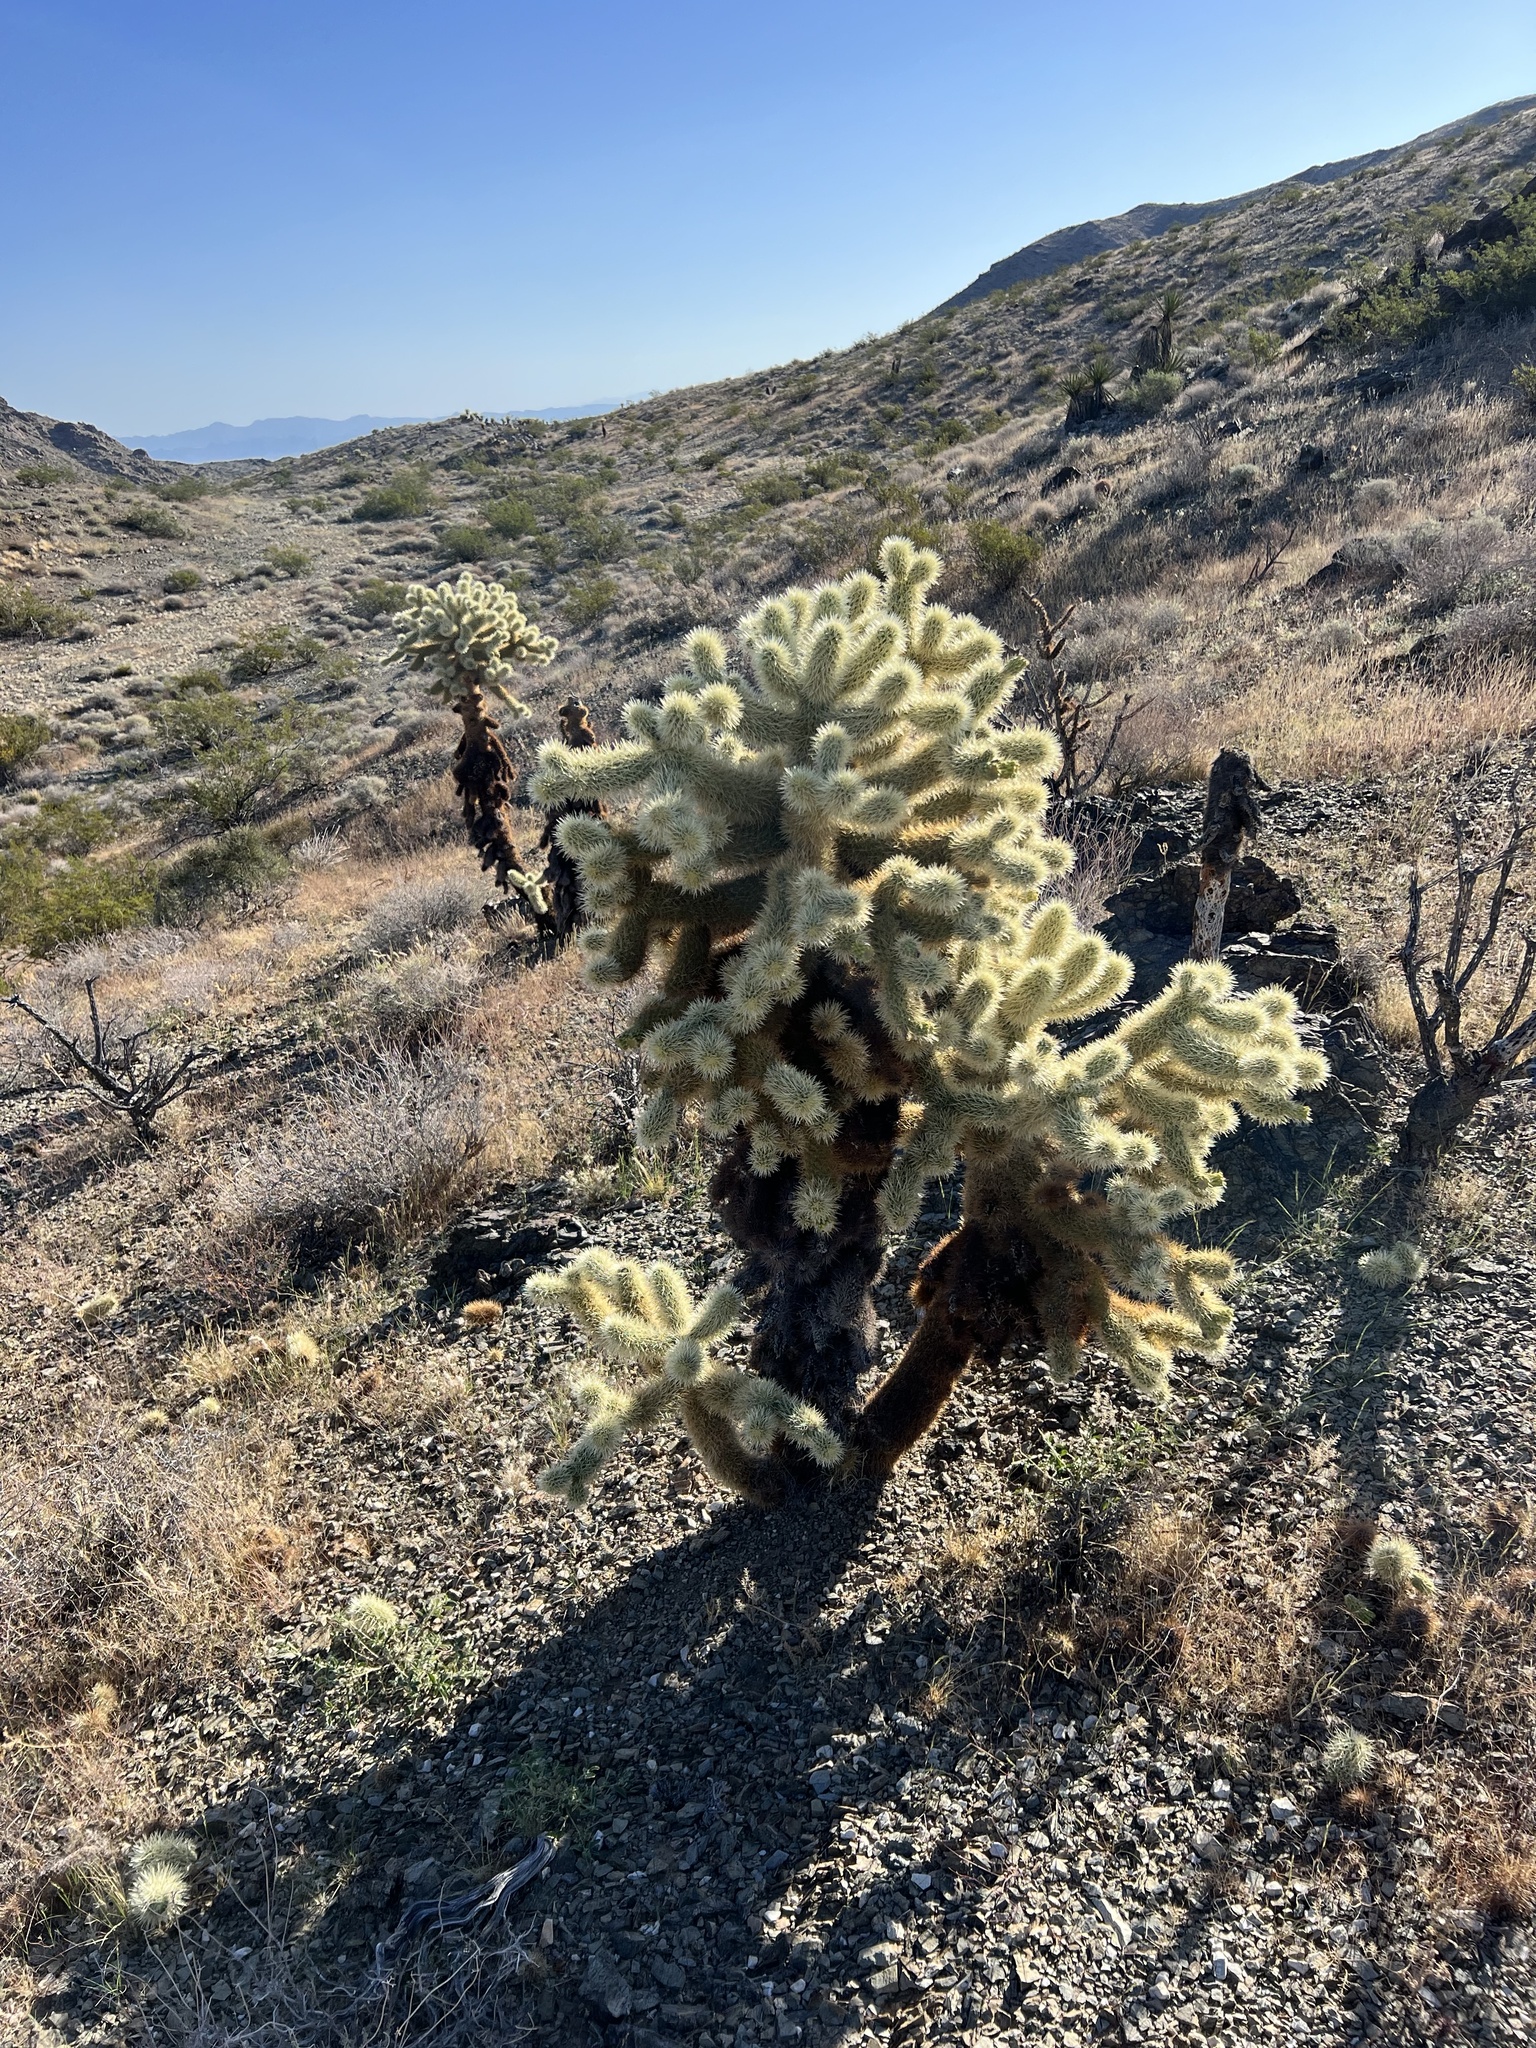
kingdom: Plantae
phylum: Tracheophyta
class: Magnoliopsida
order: Caryophyllales
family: Cactaceae
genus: Cylindropuntia
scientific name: Cylindropuntia fosbergii
